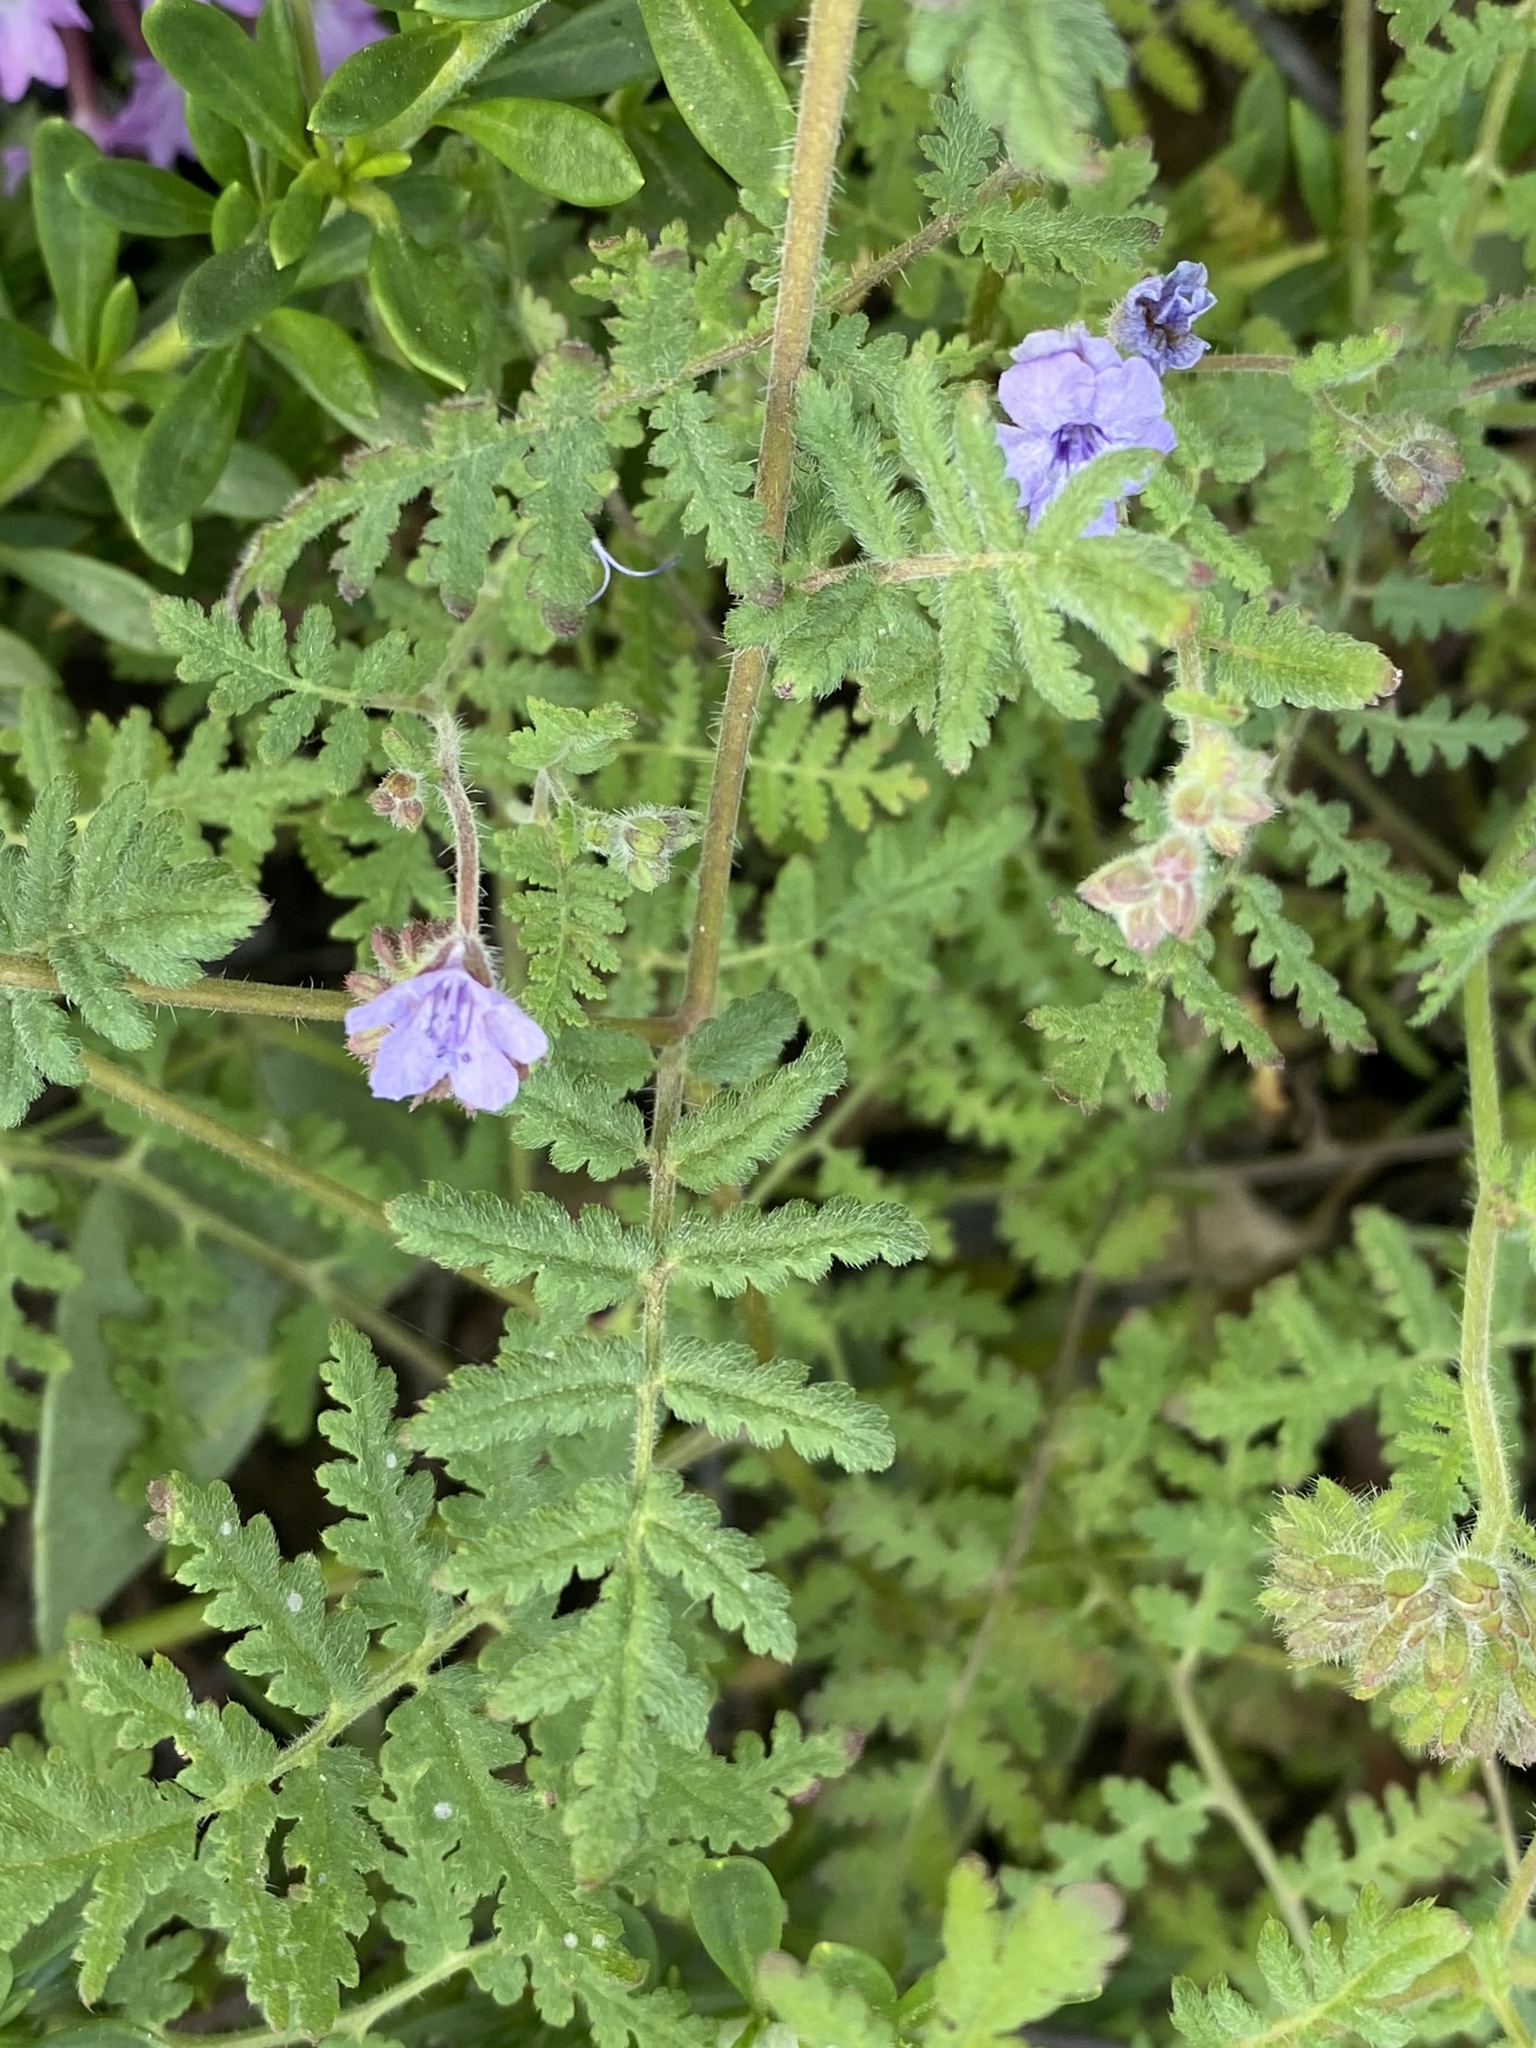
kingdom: Plantae
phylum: Tracheophyta
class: Magnoliopsida
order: Boraginales
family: Hydrophyllaceae
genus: Phacelia
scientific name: Phacelia distans
